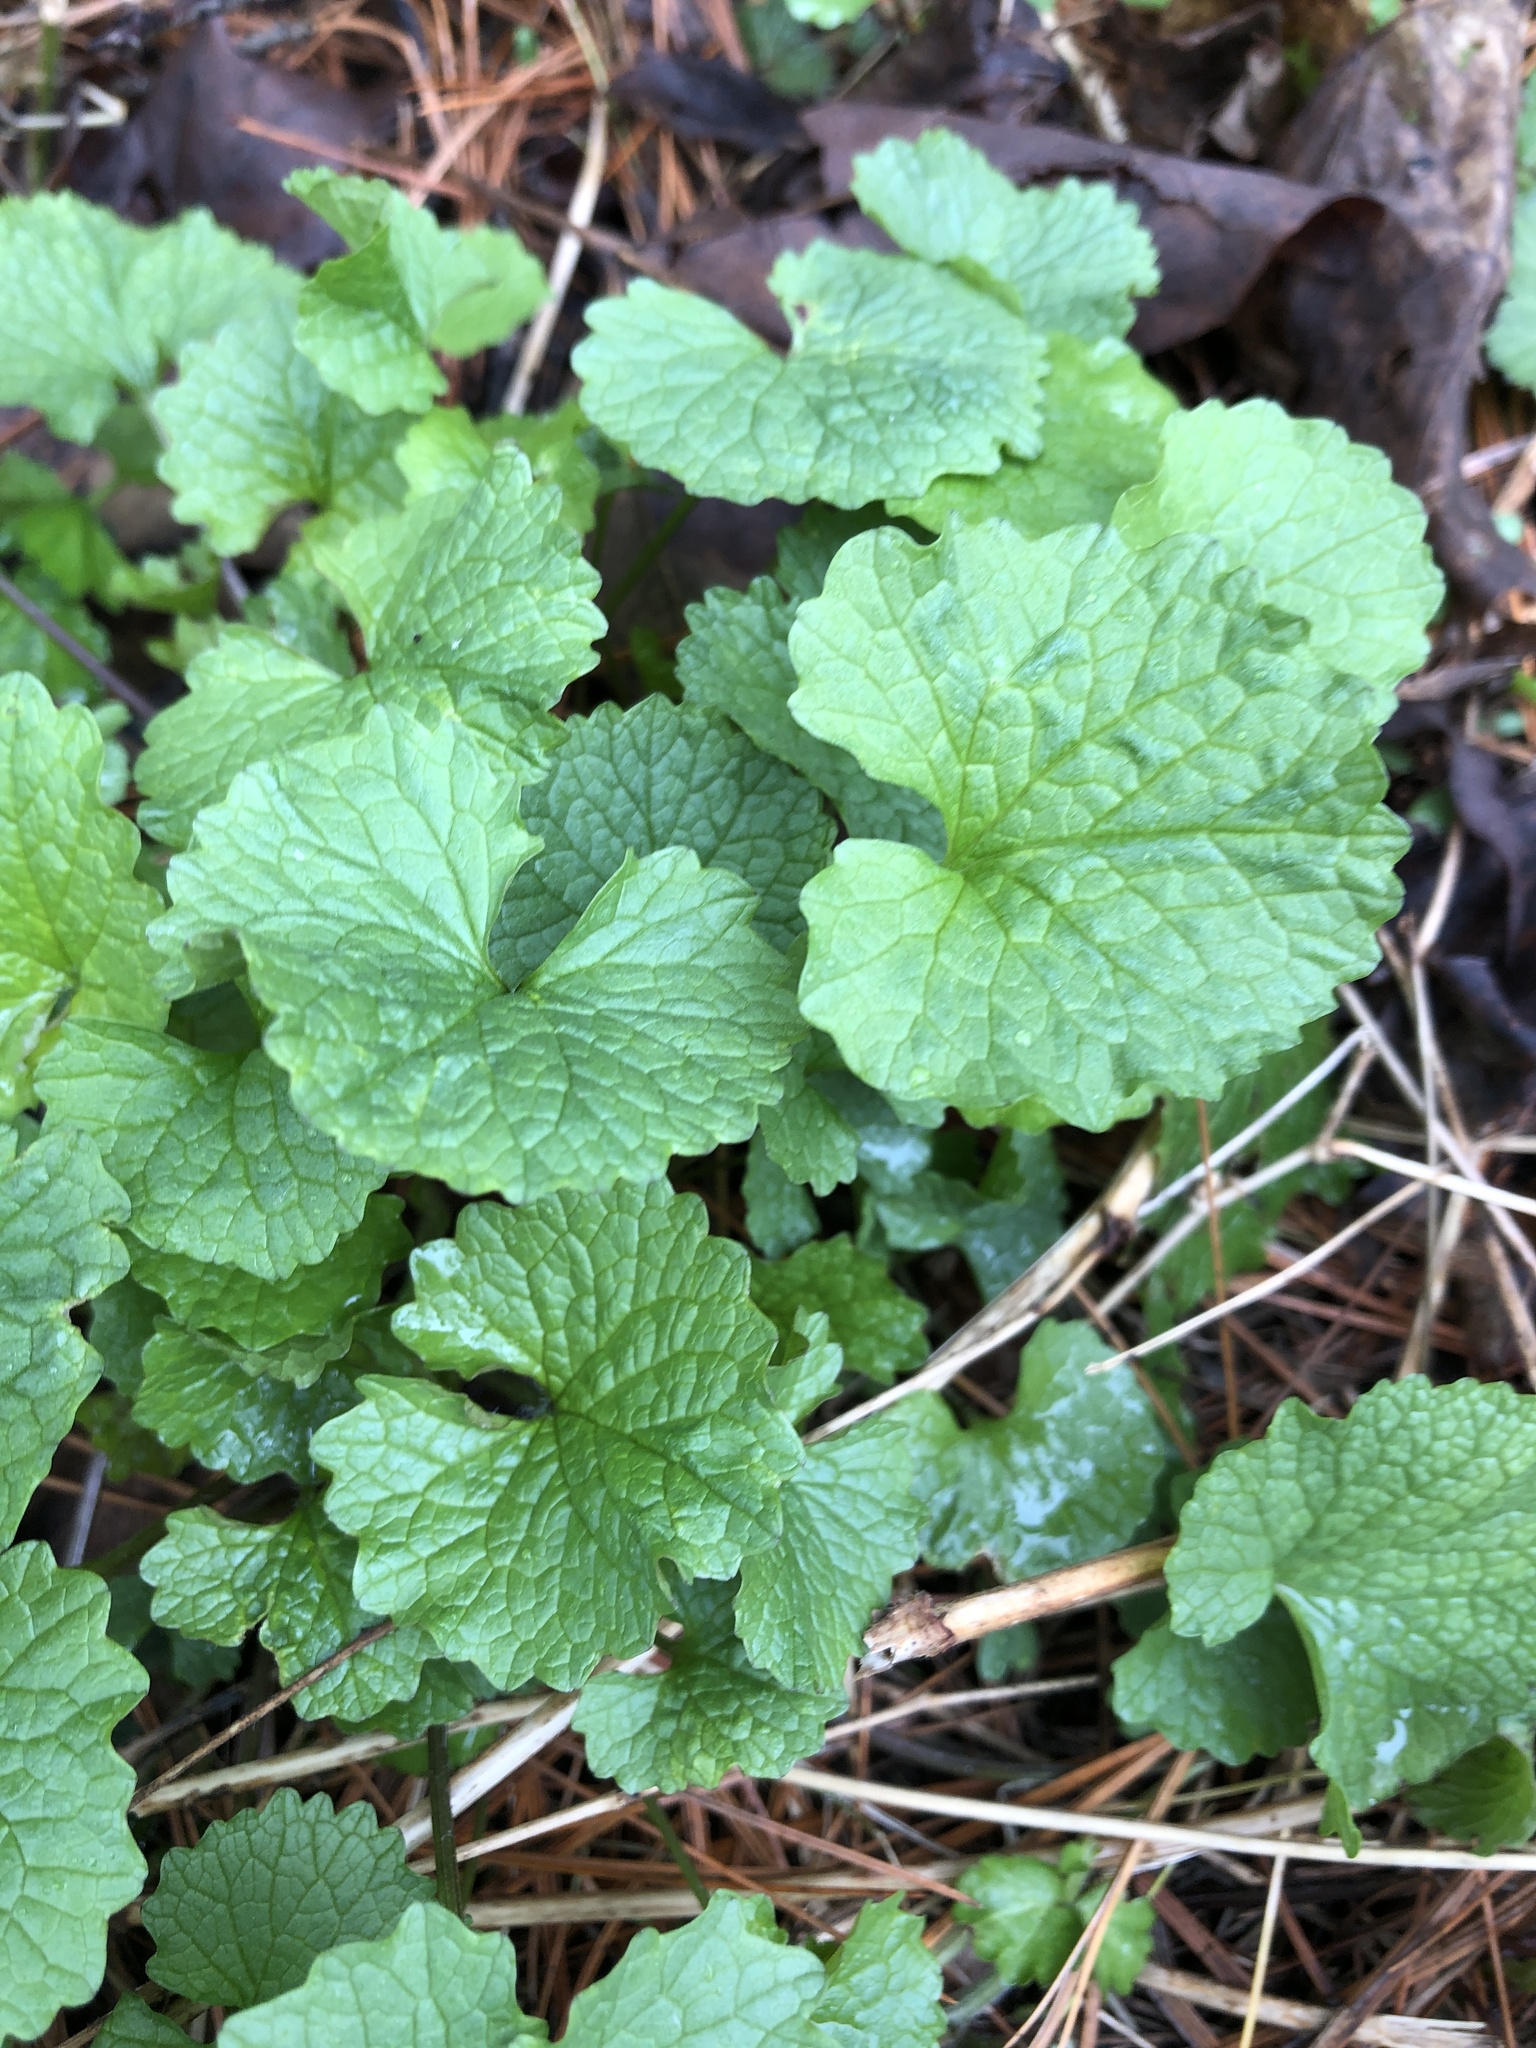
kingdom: Plantae
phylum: Tracheophyta
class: Magnoliopsida
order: Brassicales
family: Brassicaceae
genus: Alliaria
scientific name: Alliaria petiolata
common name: Garlic mustard
